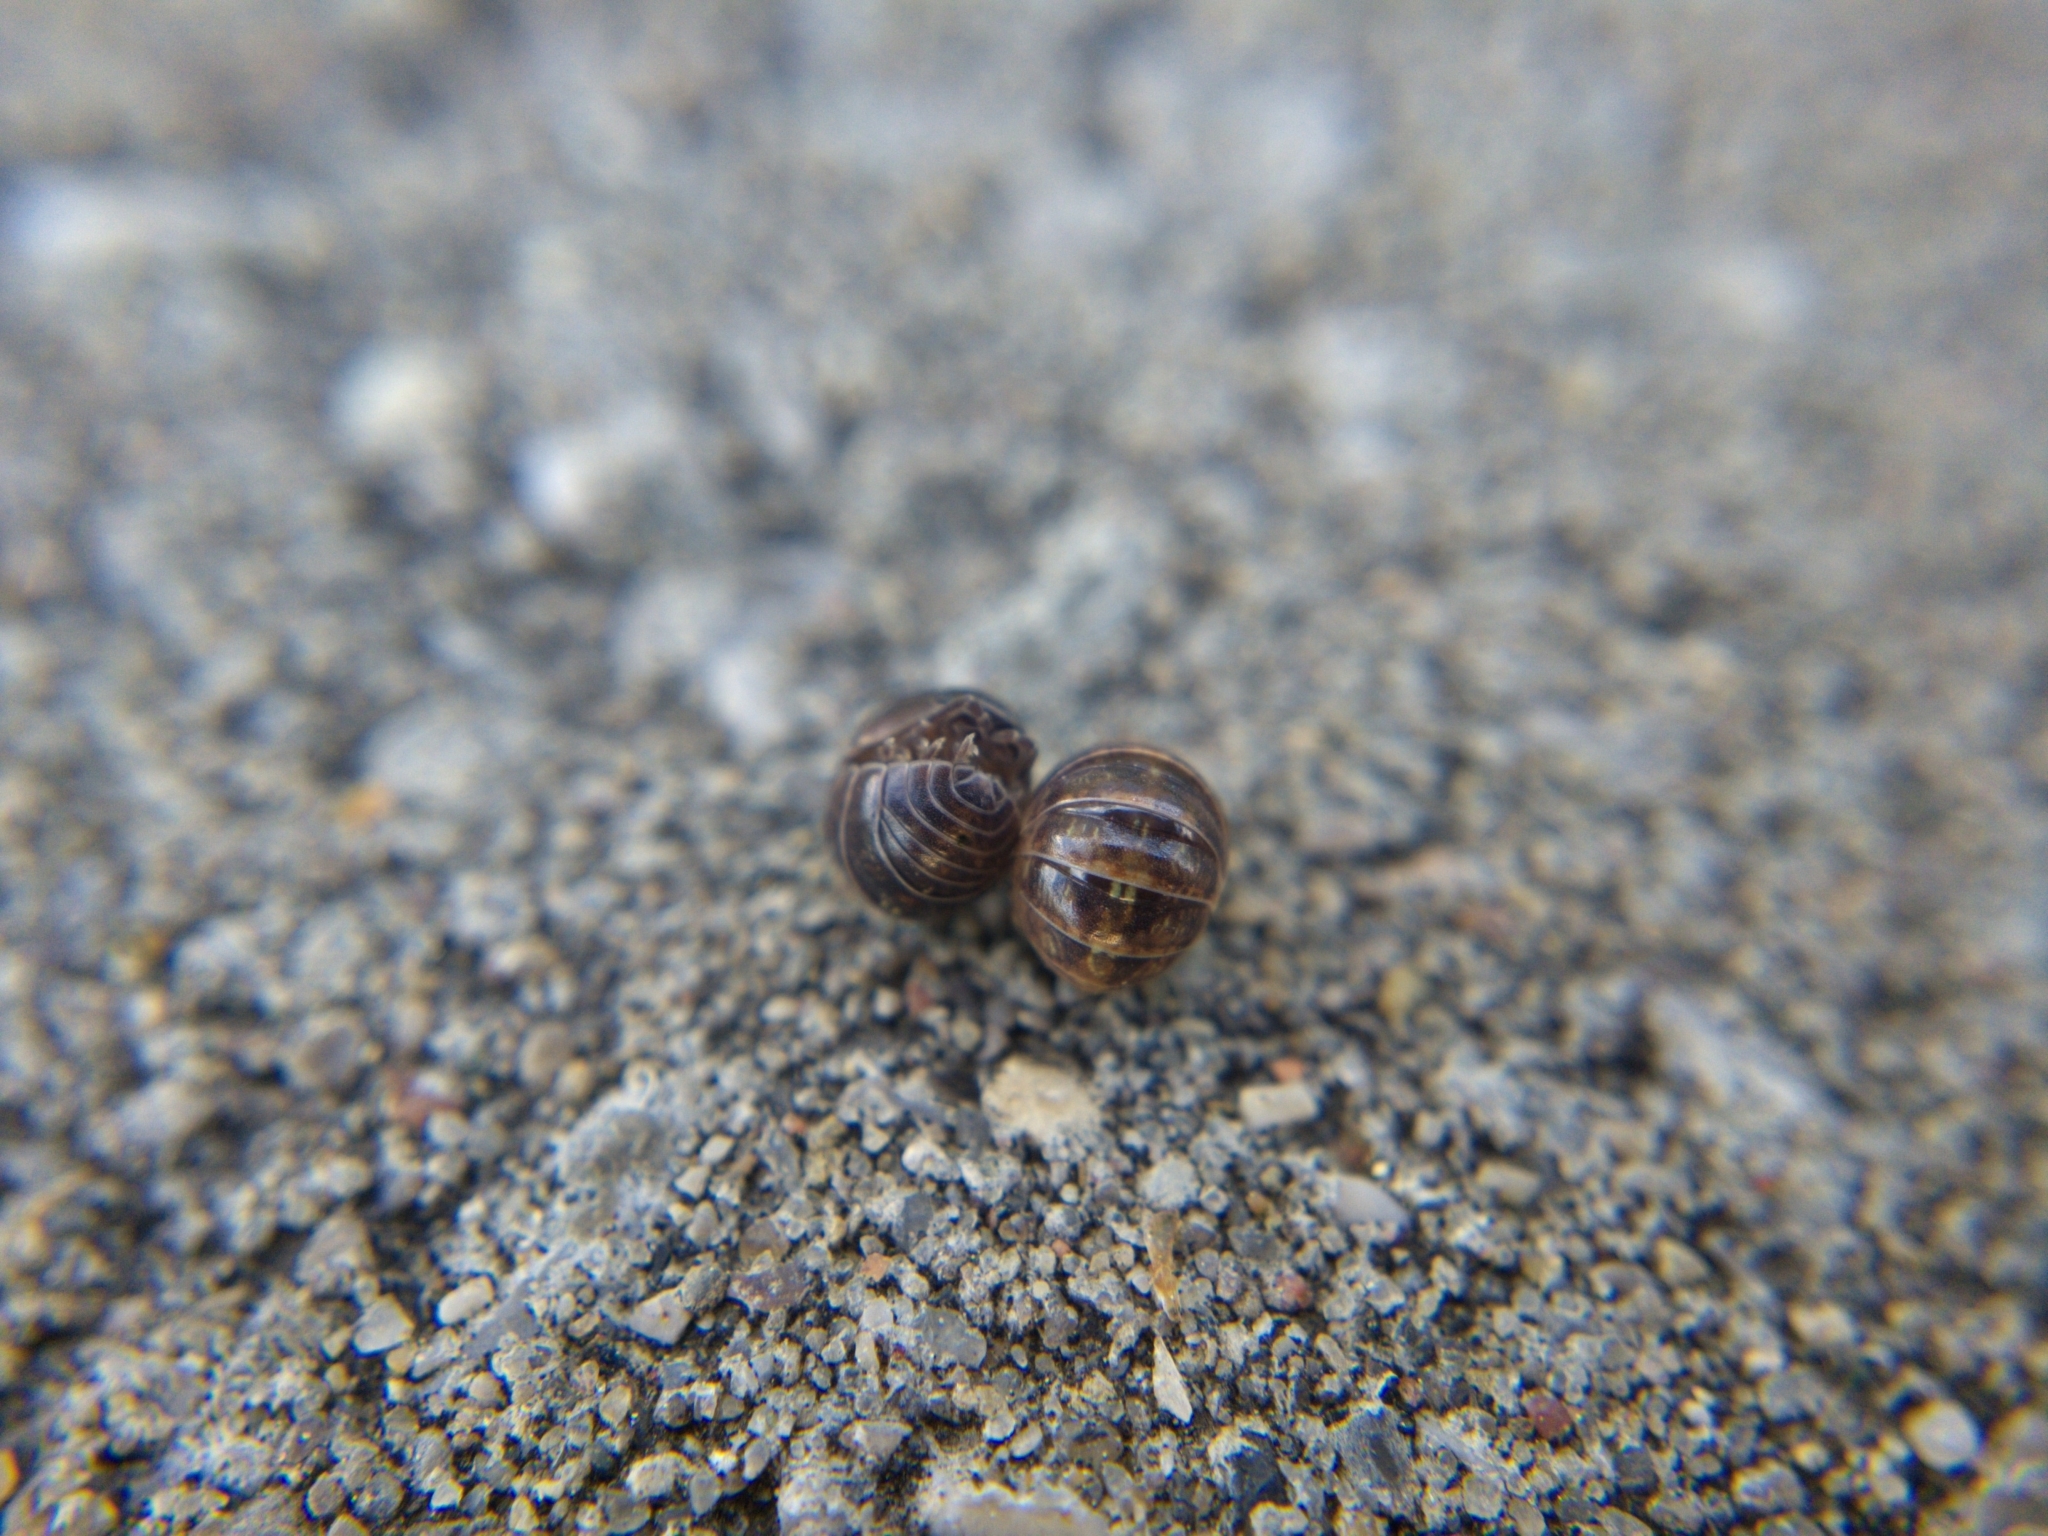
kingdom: Animalia
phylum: Arthropoda
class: Malacostraca
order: Isopoda
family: Armadillidiidae
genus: Armadillidium
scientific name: Armadillidium vulgare
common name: Common pill woodlouse
